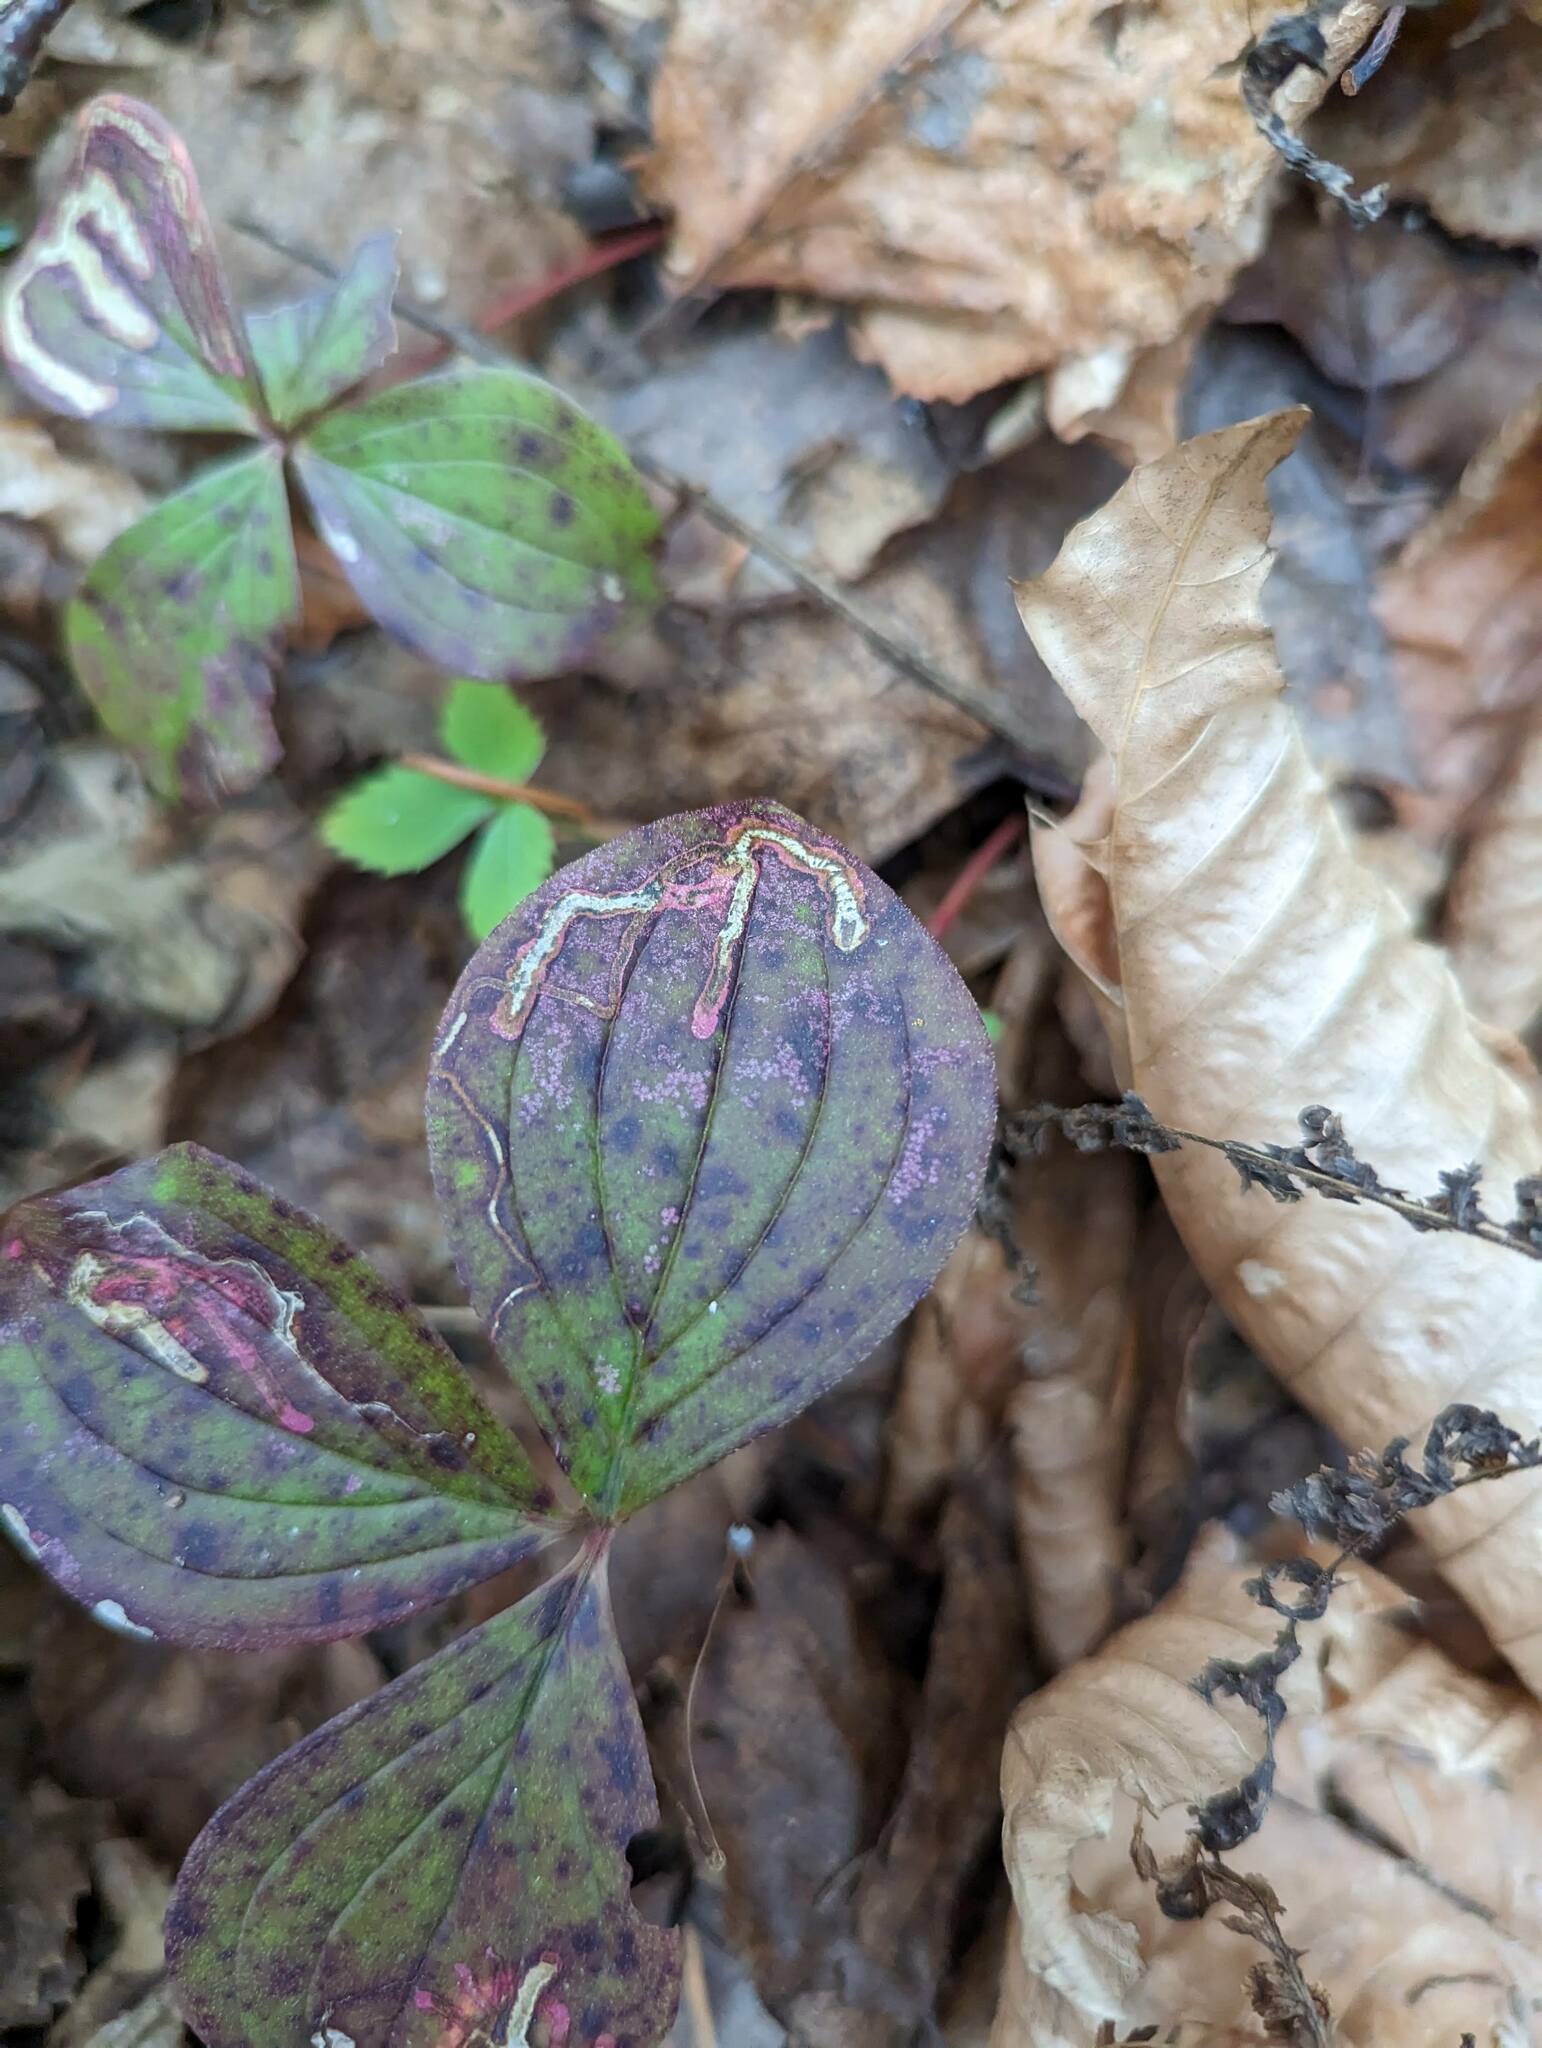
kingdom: Animalia
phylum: Arthropoda
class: Insecta
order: Diptera
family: Agromyzidae
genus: Phytomyza
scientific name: Phytomyza agromyzina
